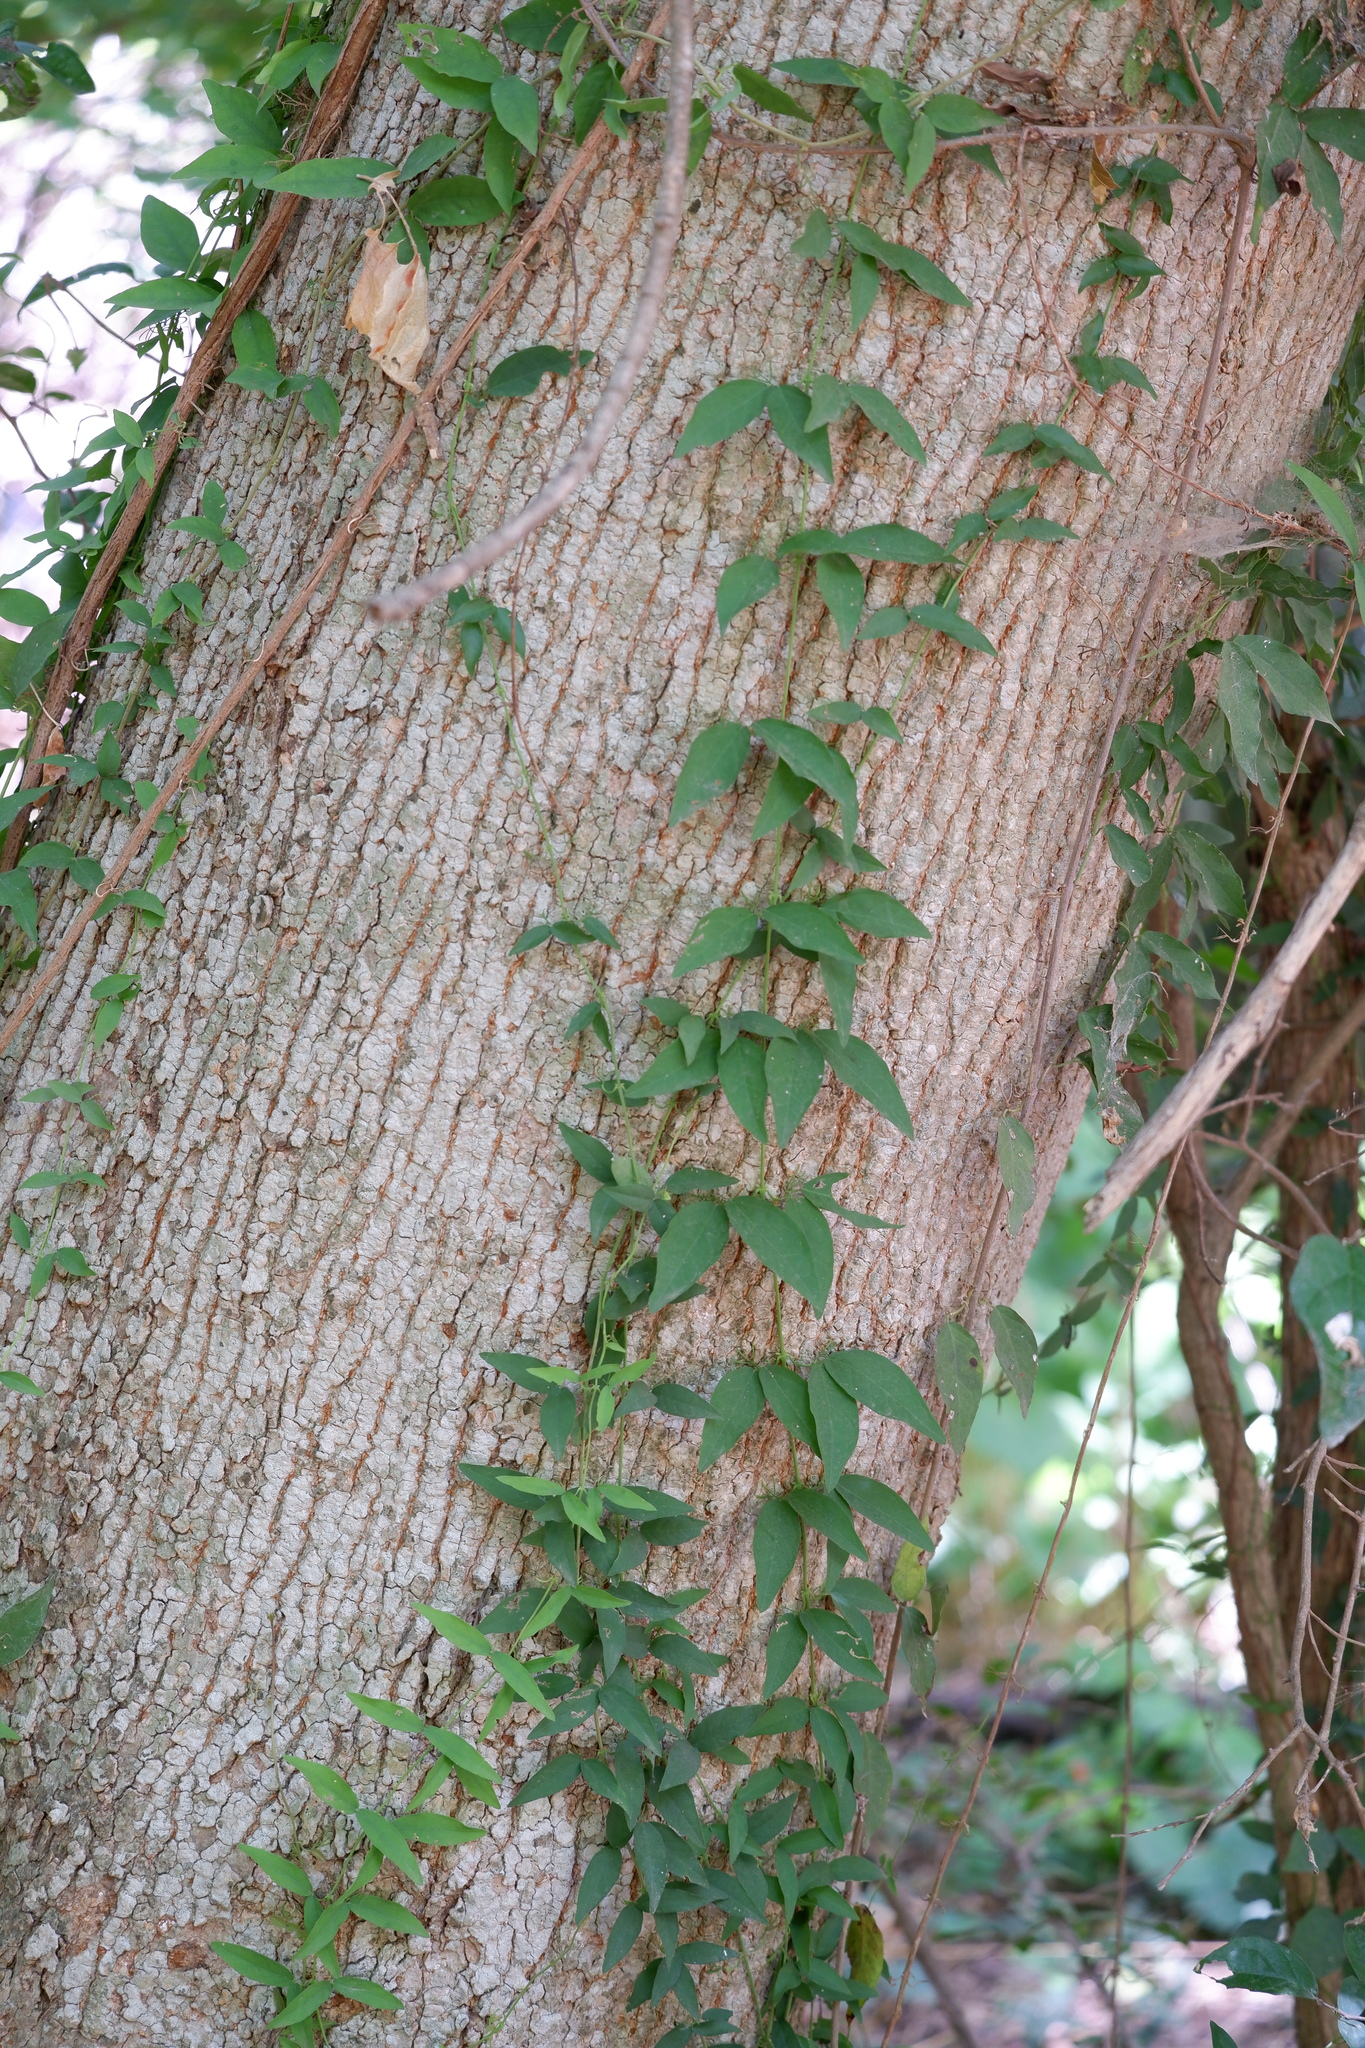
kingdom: Plantae
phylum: Tracheophyta
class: Magnoliopsida
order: Lamiales
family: Bignoniaceae
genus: Dolichandra
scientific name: Dolichandra unguis-cati
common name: Catclaw vine
